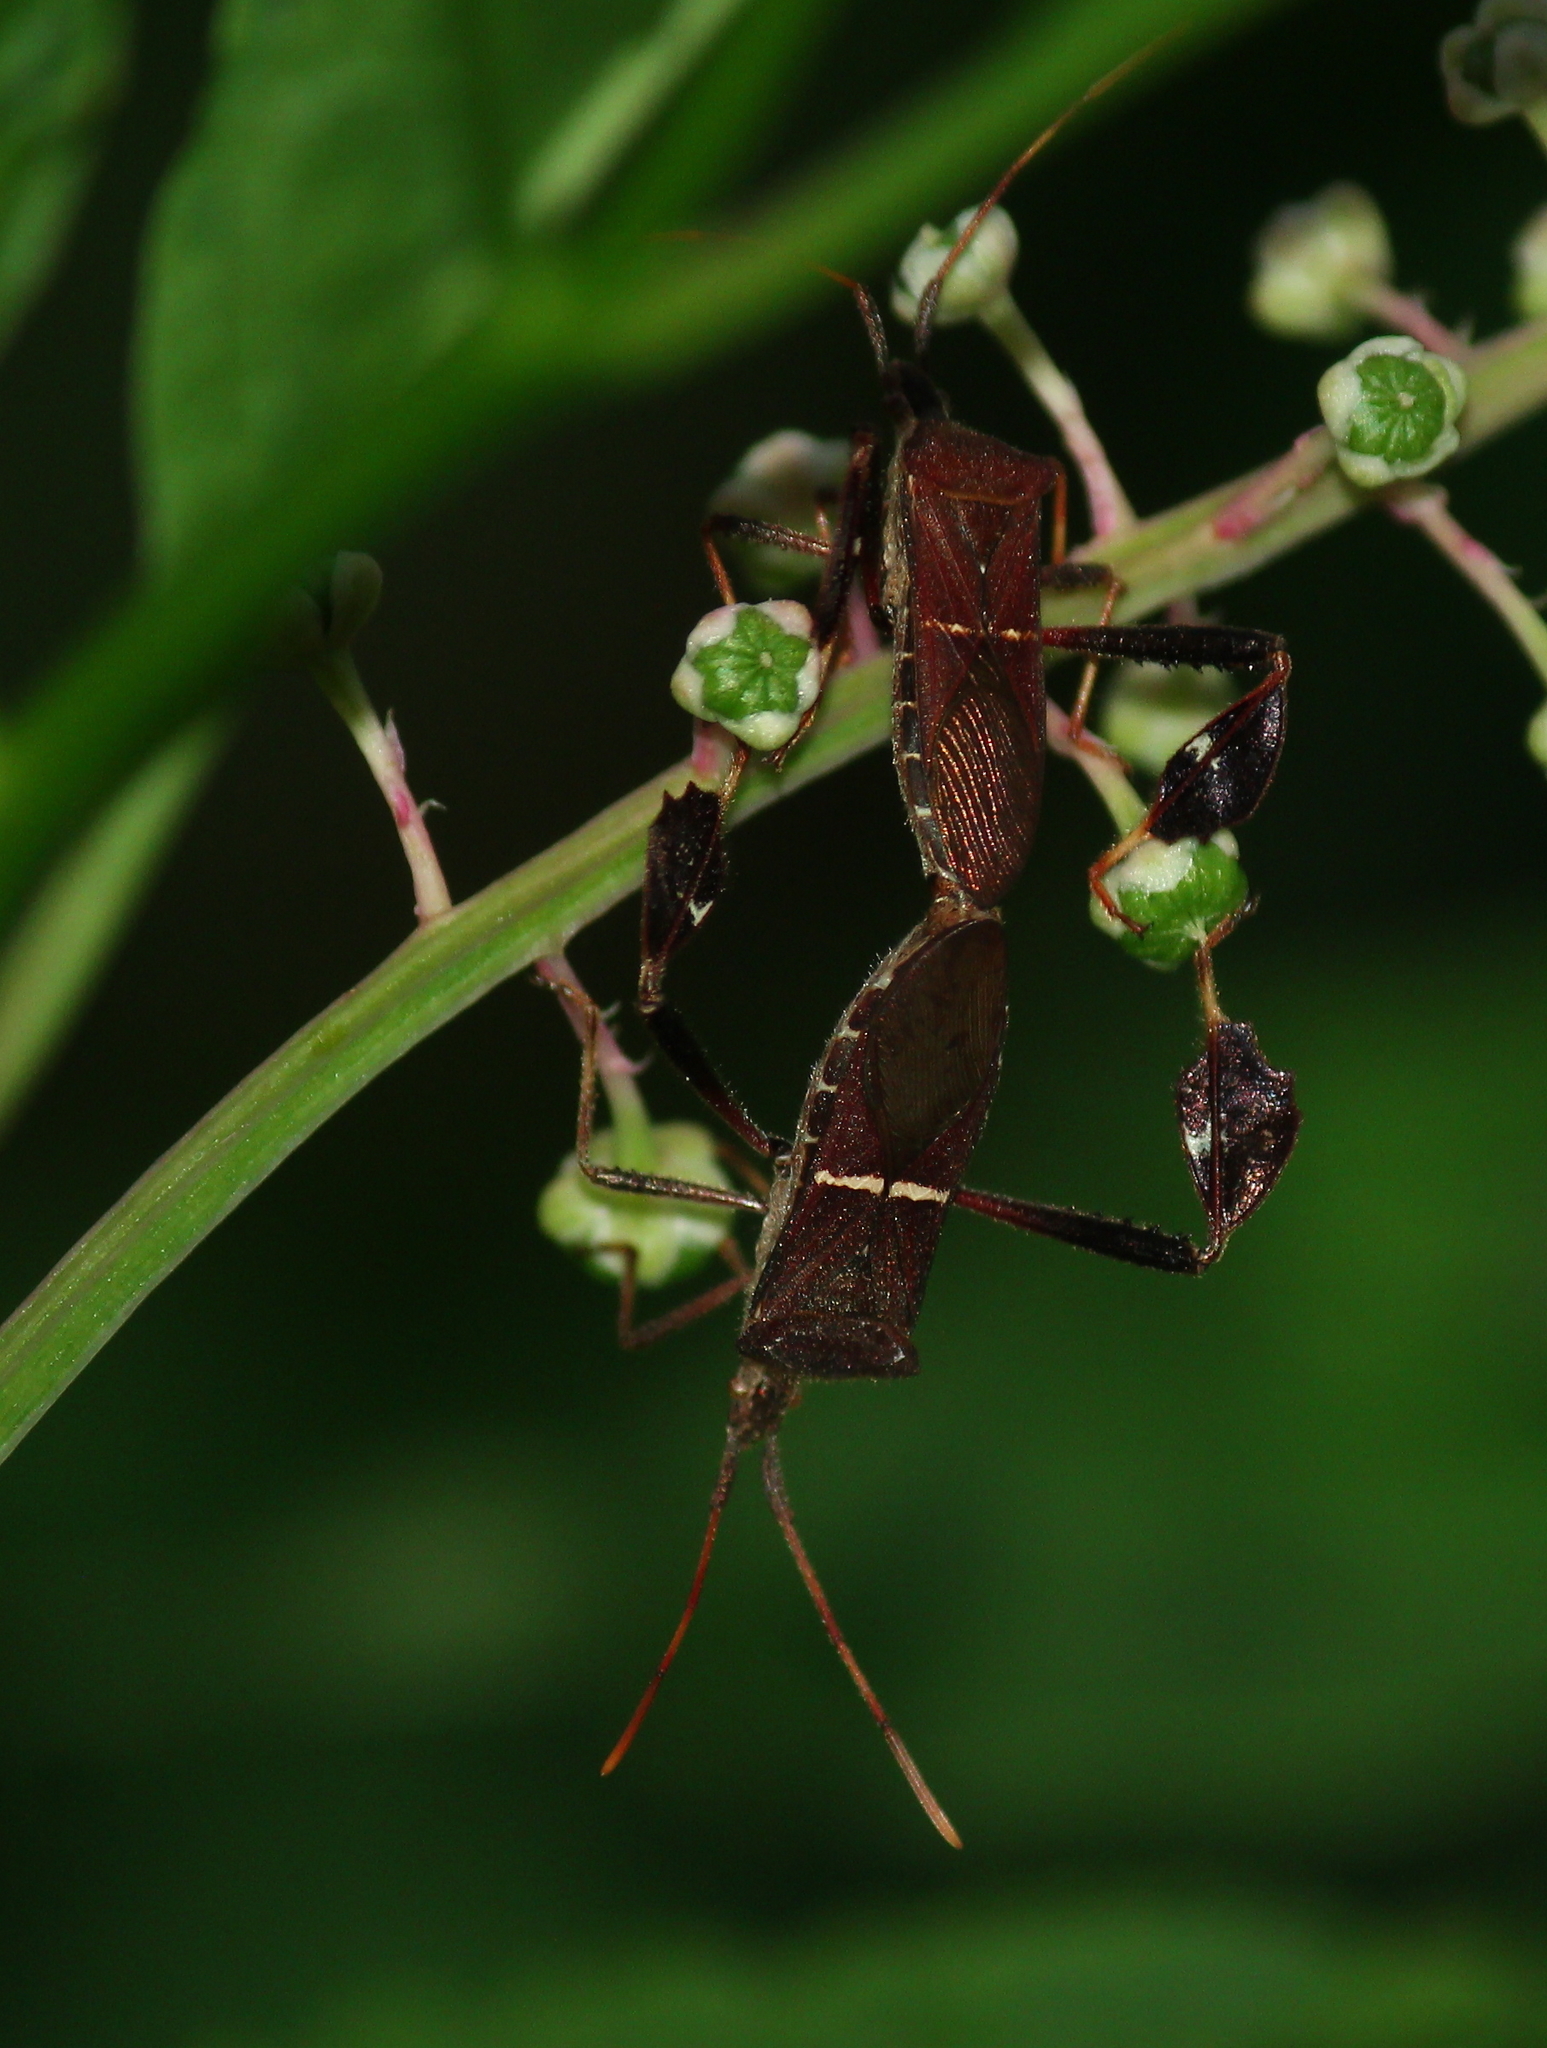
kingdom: Animalia
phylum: Arthropoda
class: Insecta
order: Hemiptera
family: Coreidae
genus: Leptoglossus
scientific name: Leptoglossus phyllopus
